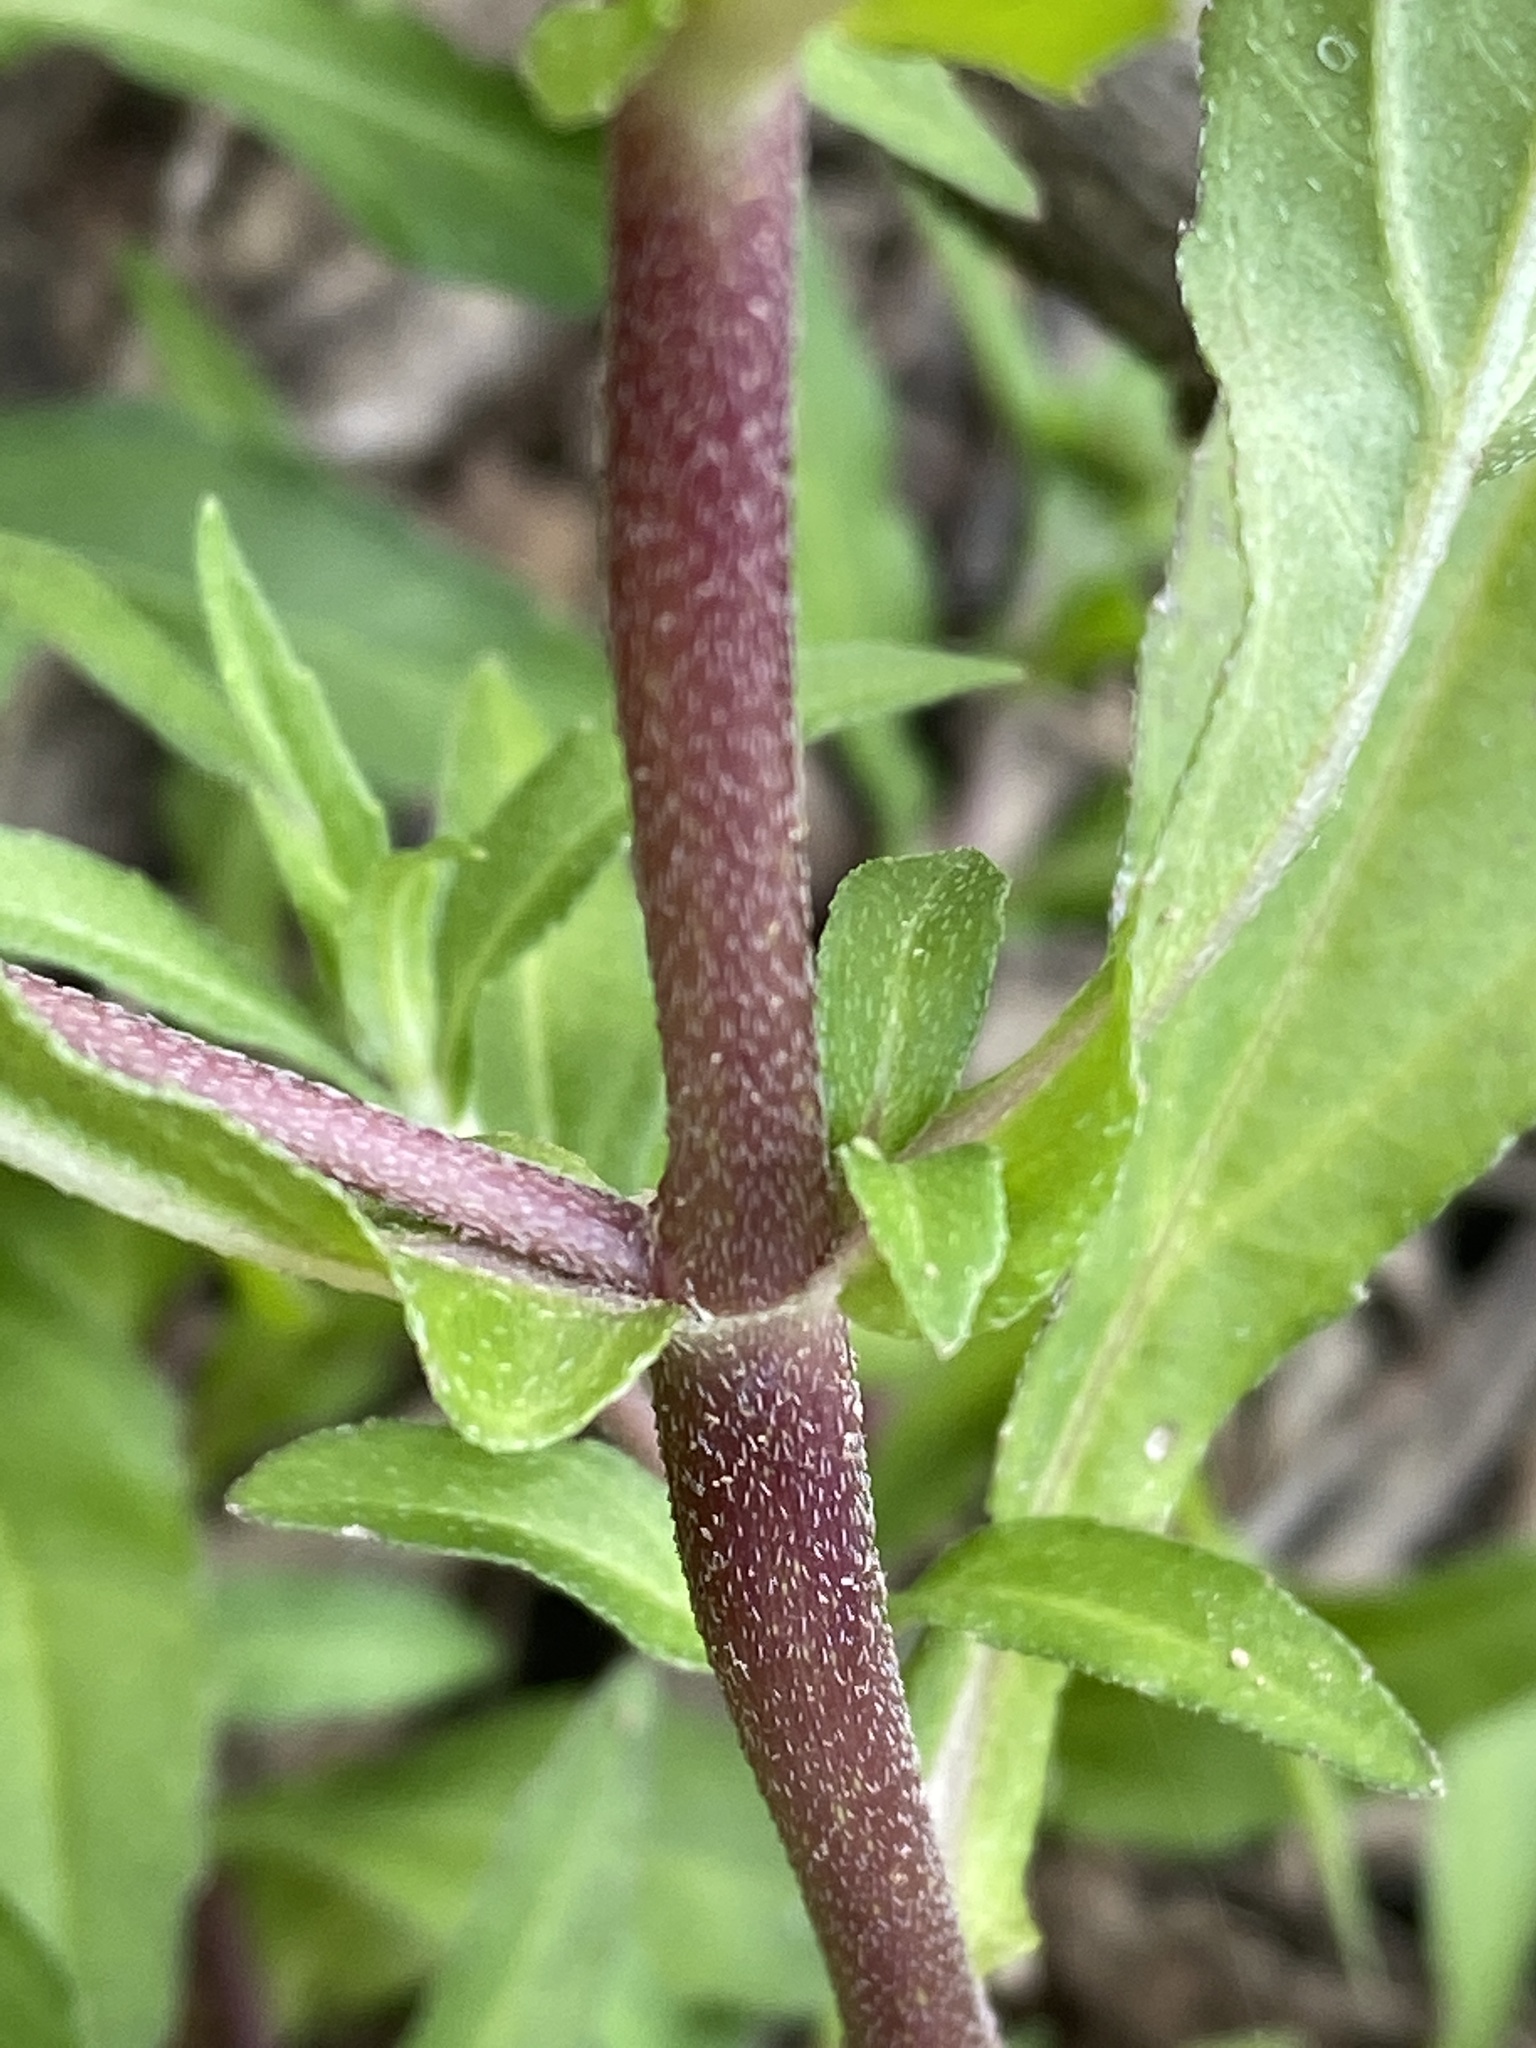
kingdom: Plantae
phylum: Tracheophyta
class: Magnoliopsida
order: Asterales
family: Asteraceae
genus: Eclipta
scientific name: Eclipta prostrata
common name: False daisy
